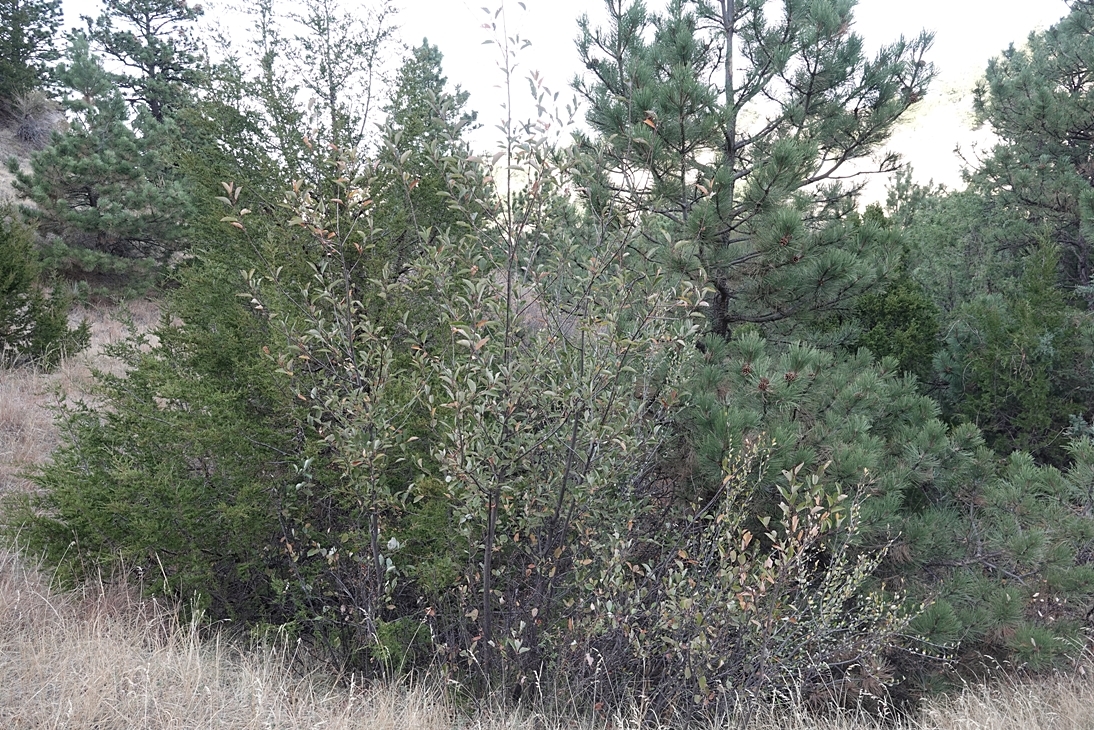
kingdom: Plantae
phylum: Tracheophyta
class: Magnoliopsida
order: Rosales
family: Rosaceae
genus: Prunus
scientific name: Prunus virginiana
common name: Chokecherry
